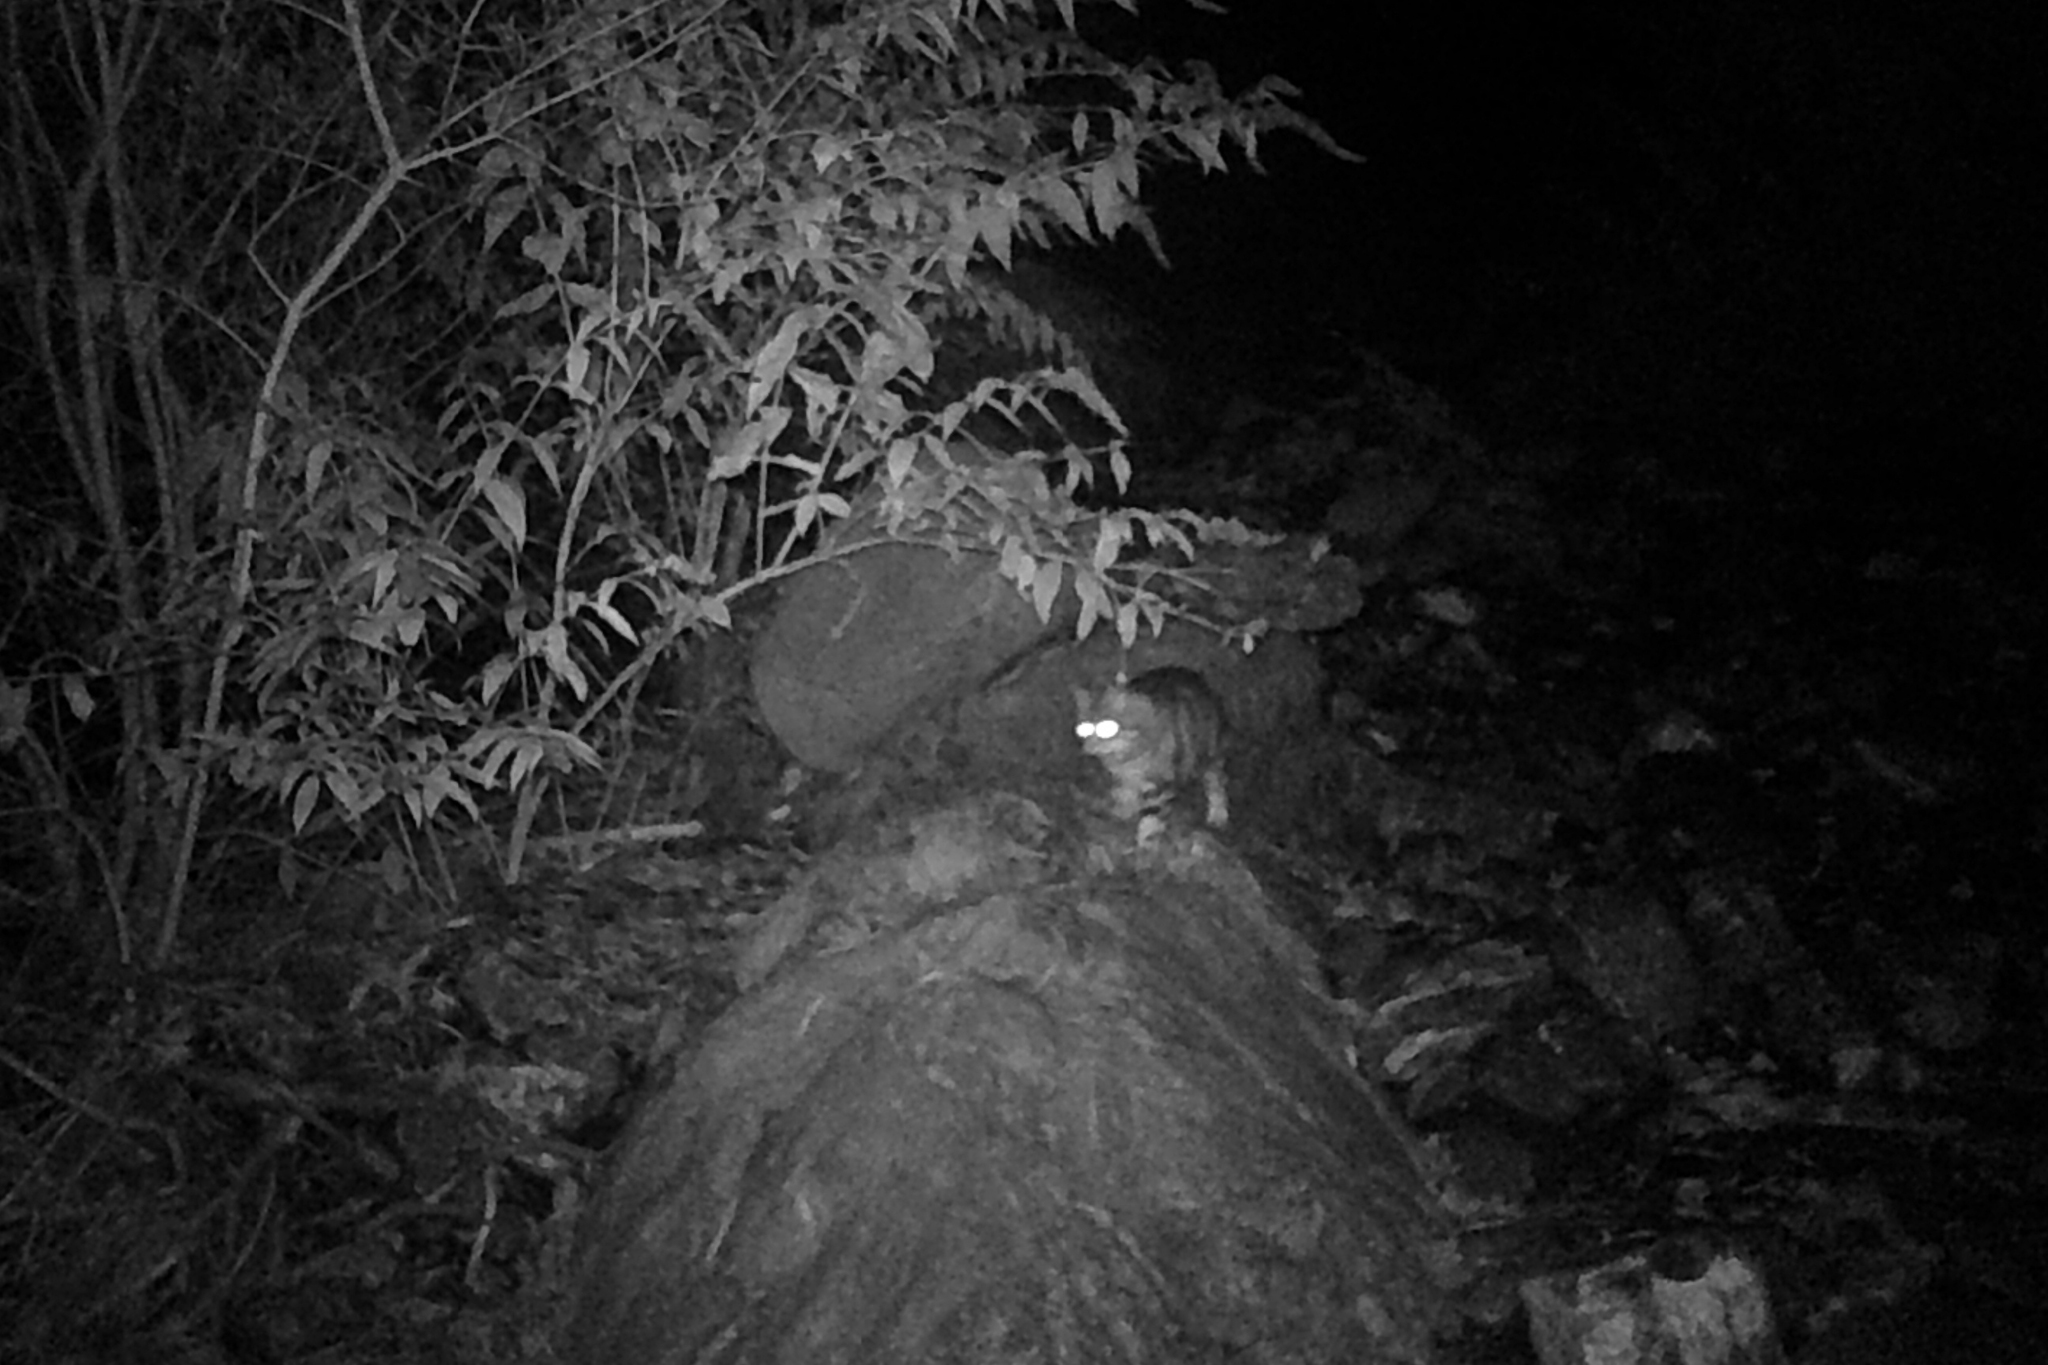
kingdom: Animalia
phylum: Chordata
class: Mammalia
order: Carnivora
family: Felidae
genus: Felis
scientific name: Felis catus
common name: Domestic cat
